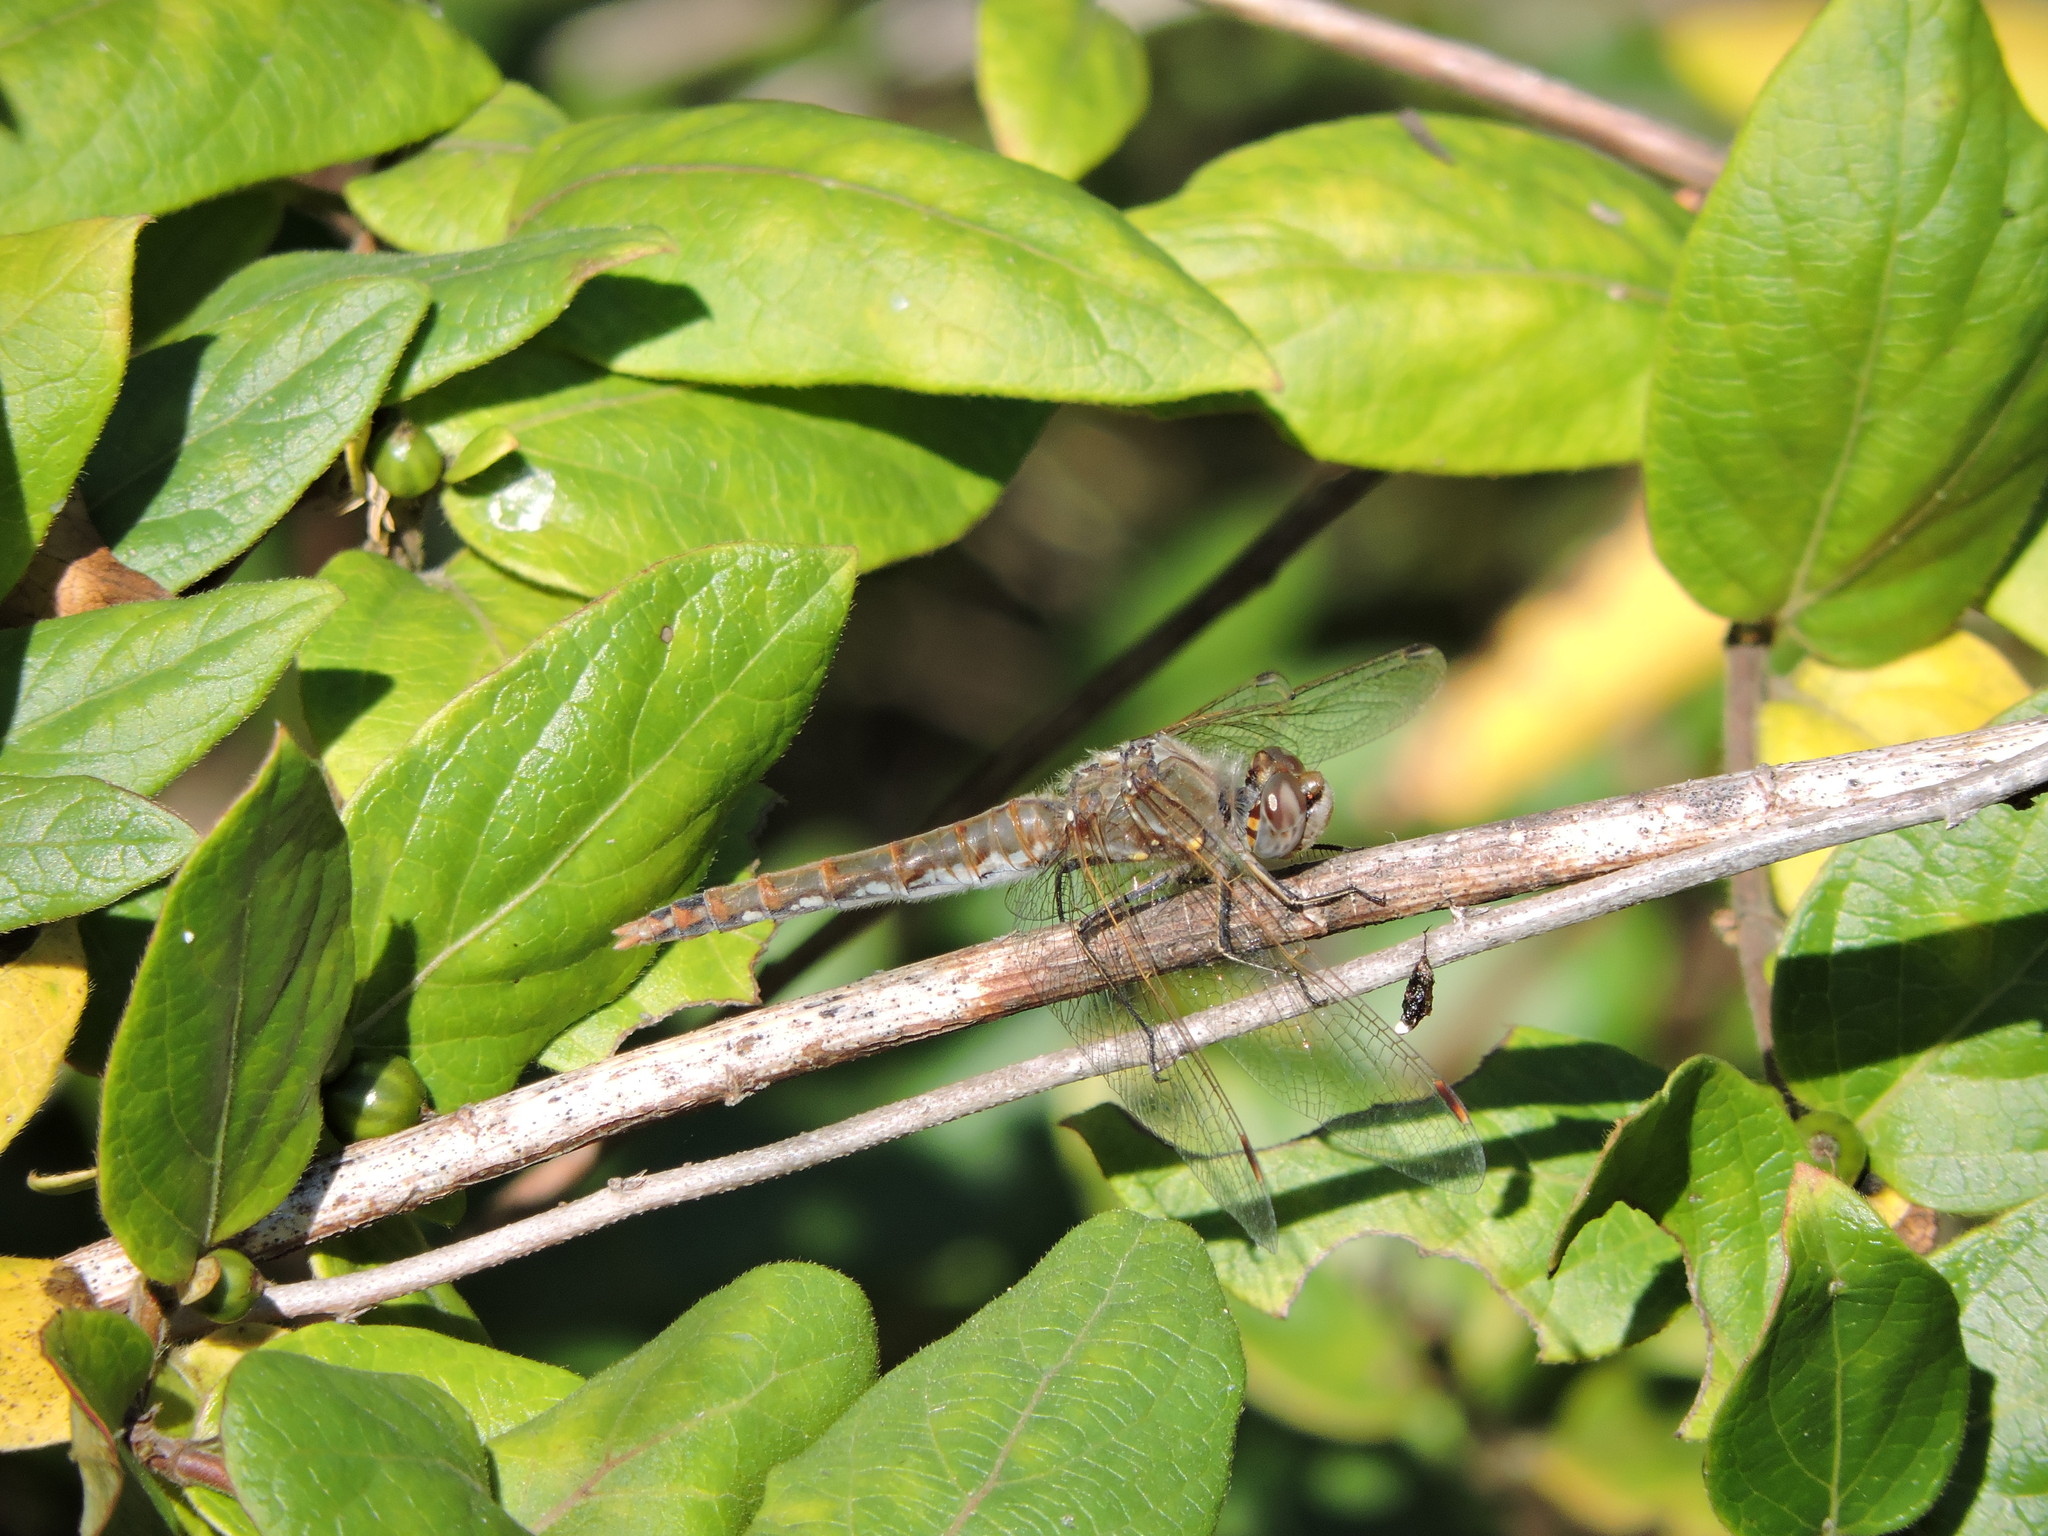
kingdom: Animalia
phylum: Arthropoda
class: Insecta
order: Odonata
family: Libellulidae
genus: Sympetrum
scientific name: Sympetrum corruptum
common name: Variegated meadowhawk
